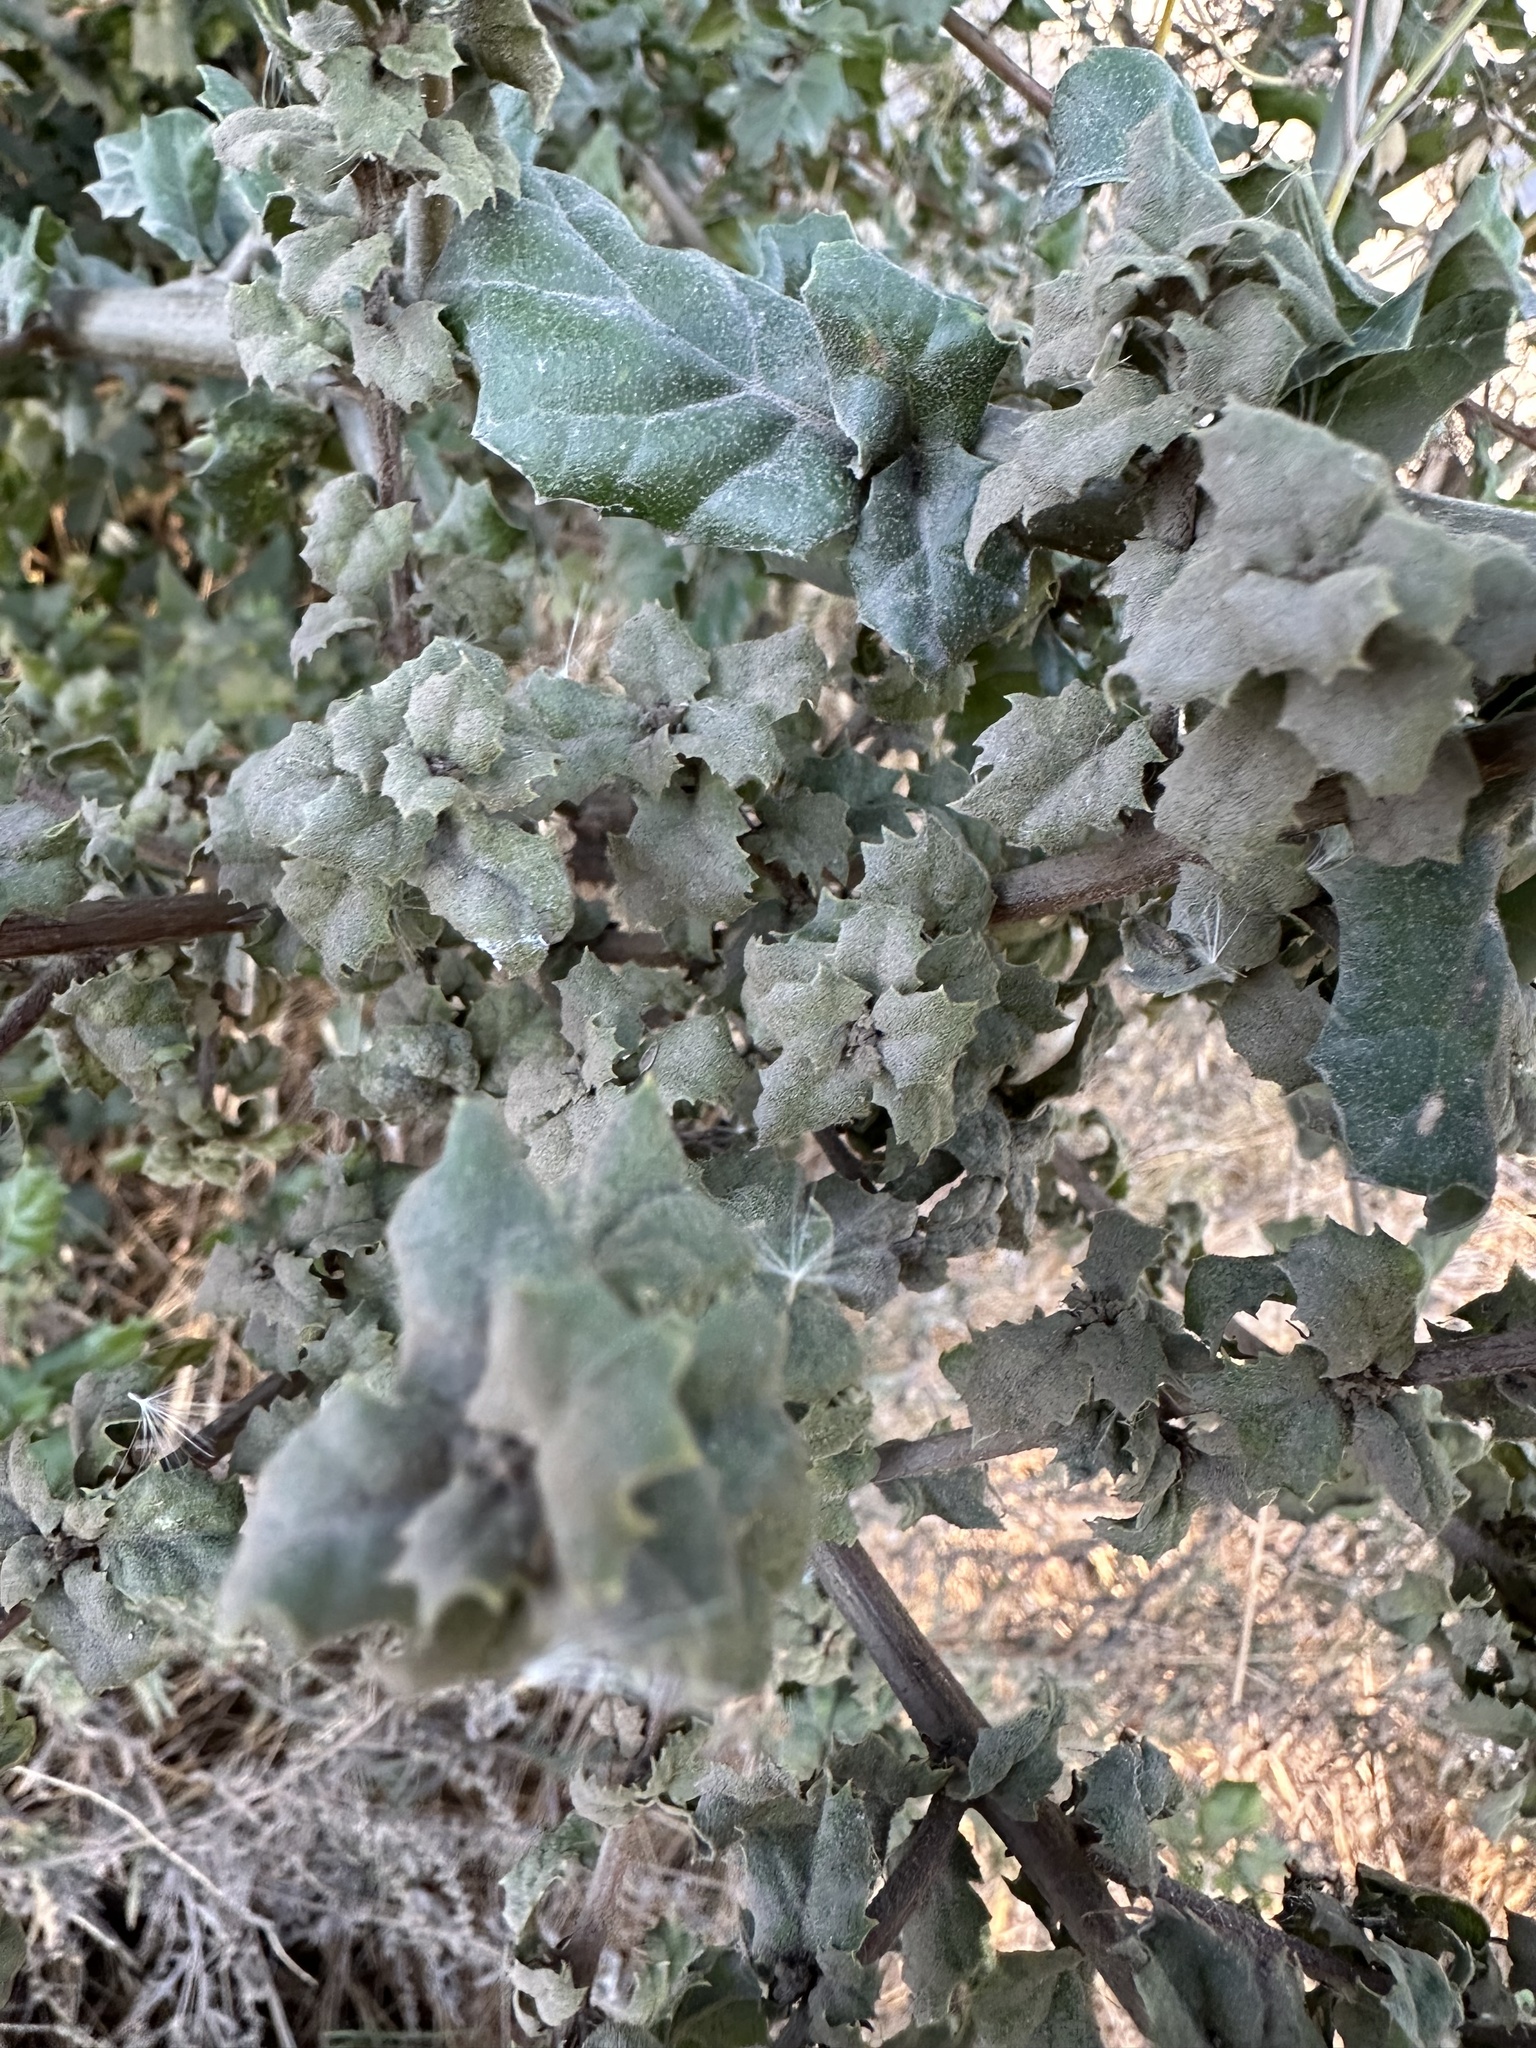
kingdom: Plantae
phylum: Tracheophyta
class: Magnoliopsida
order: Fagales
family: Fagaceae
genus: Quercus
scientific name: Quercus durata
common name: Leather oak
